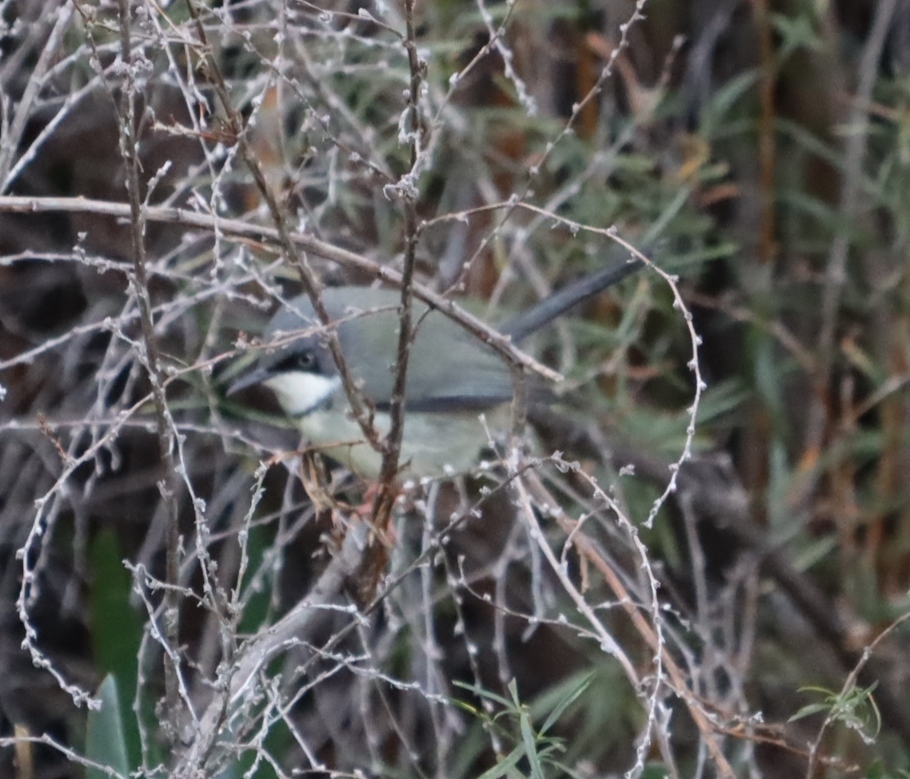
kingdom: Animalia
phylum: Chordata
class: Aves
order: Passeriformes
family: Cisticolidae
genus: Apalis
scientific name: Apalis thoracica
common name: Bar-throated apalis
